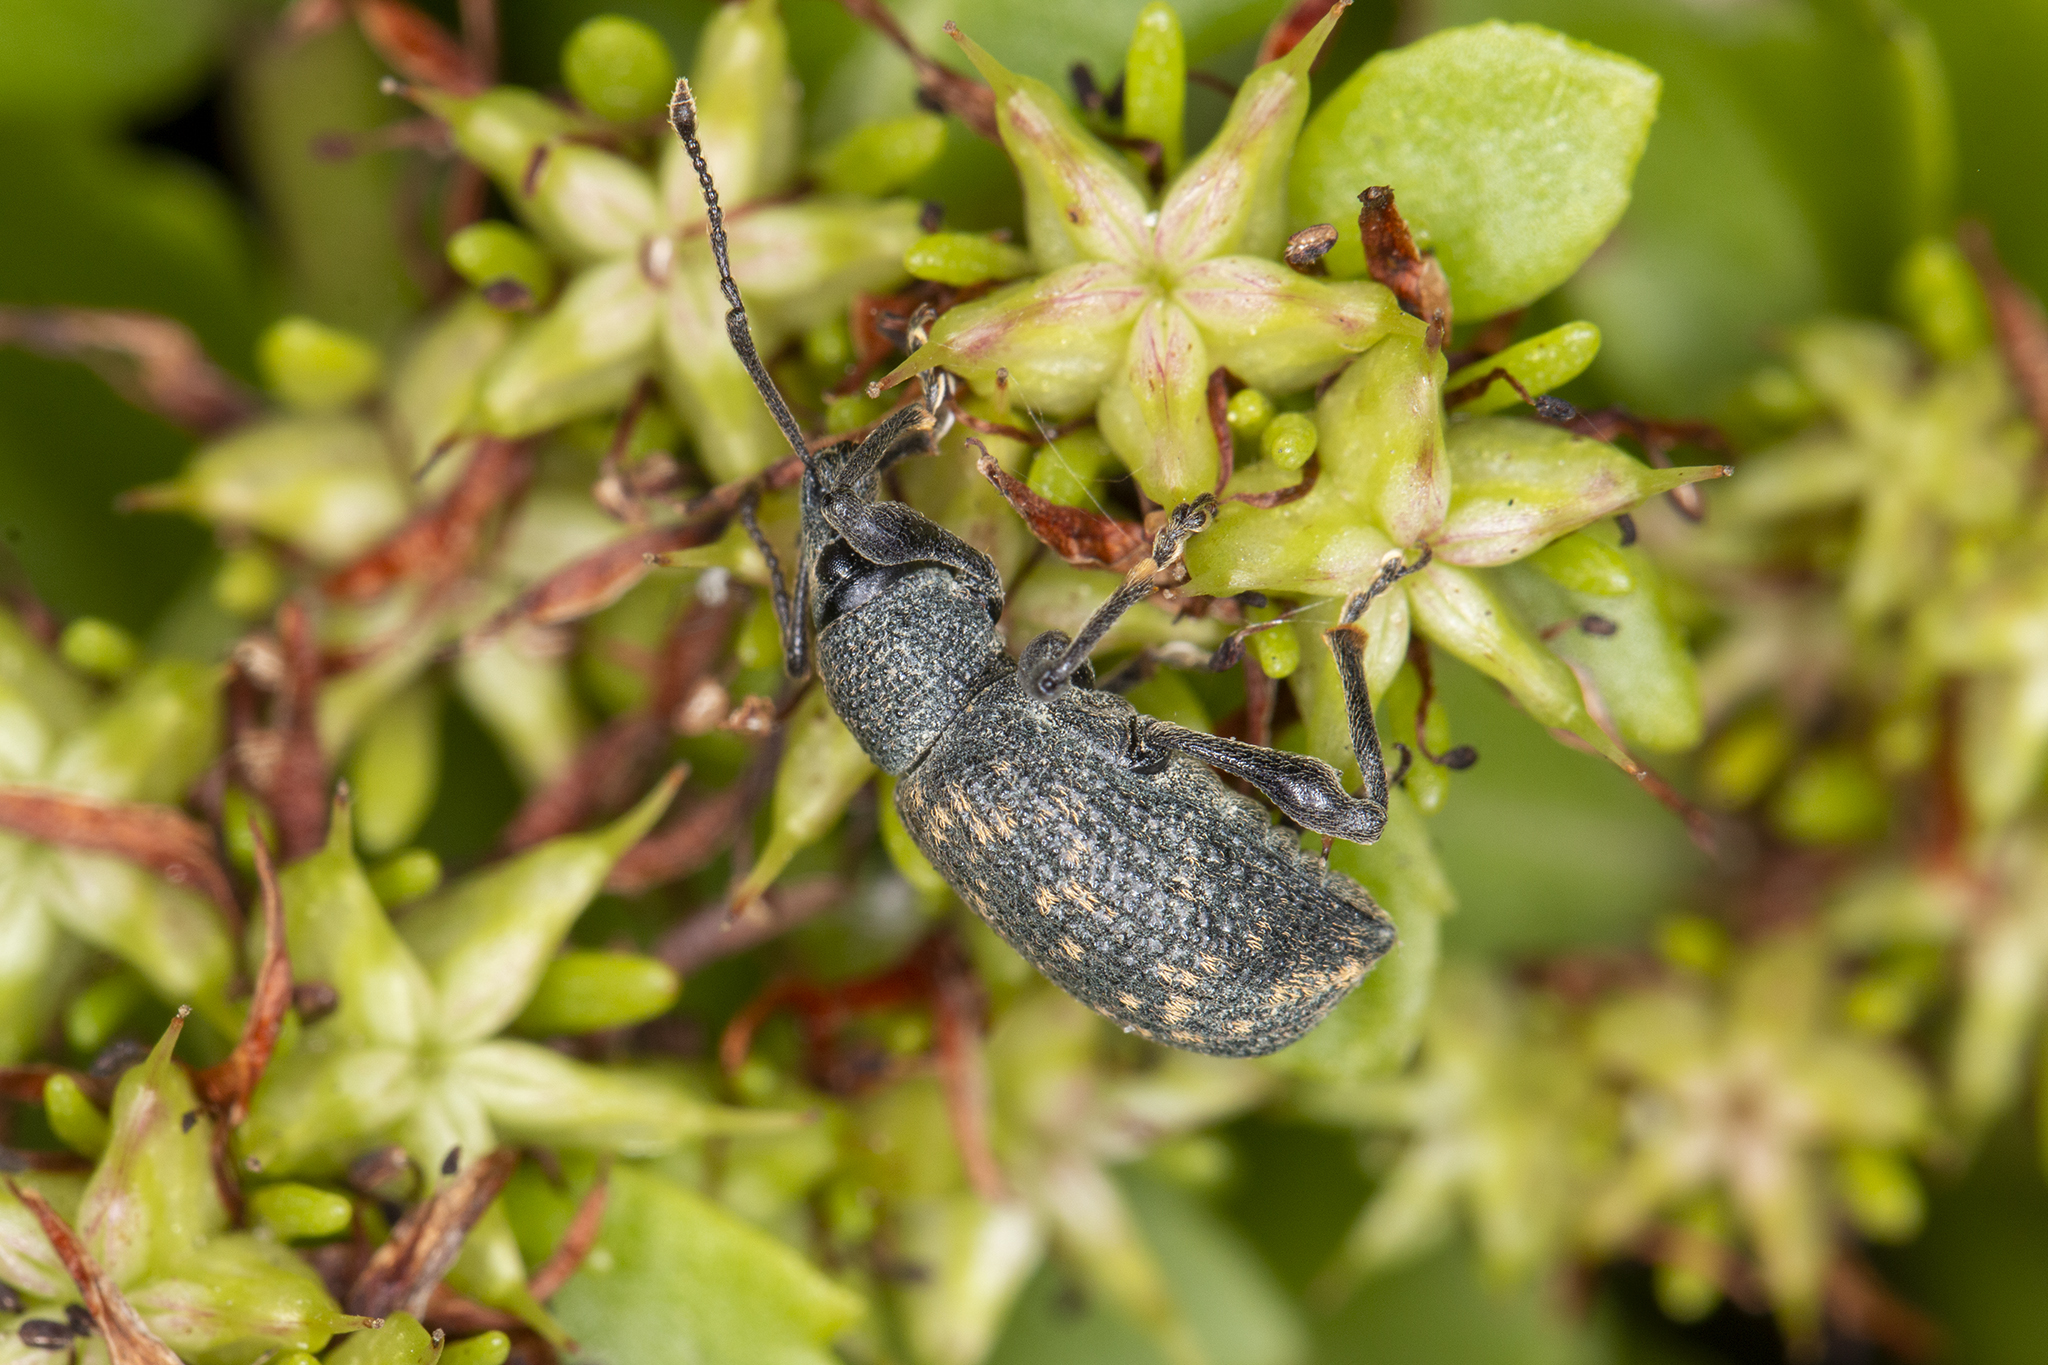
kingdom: Animalia
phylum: Arthropoda
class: Insecta
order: Coleoptera
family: Curculionidae
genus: Otiorhynchus
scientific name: Otiorhynchus sulcatus
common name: Black vine weevil
